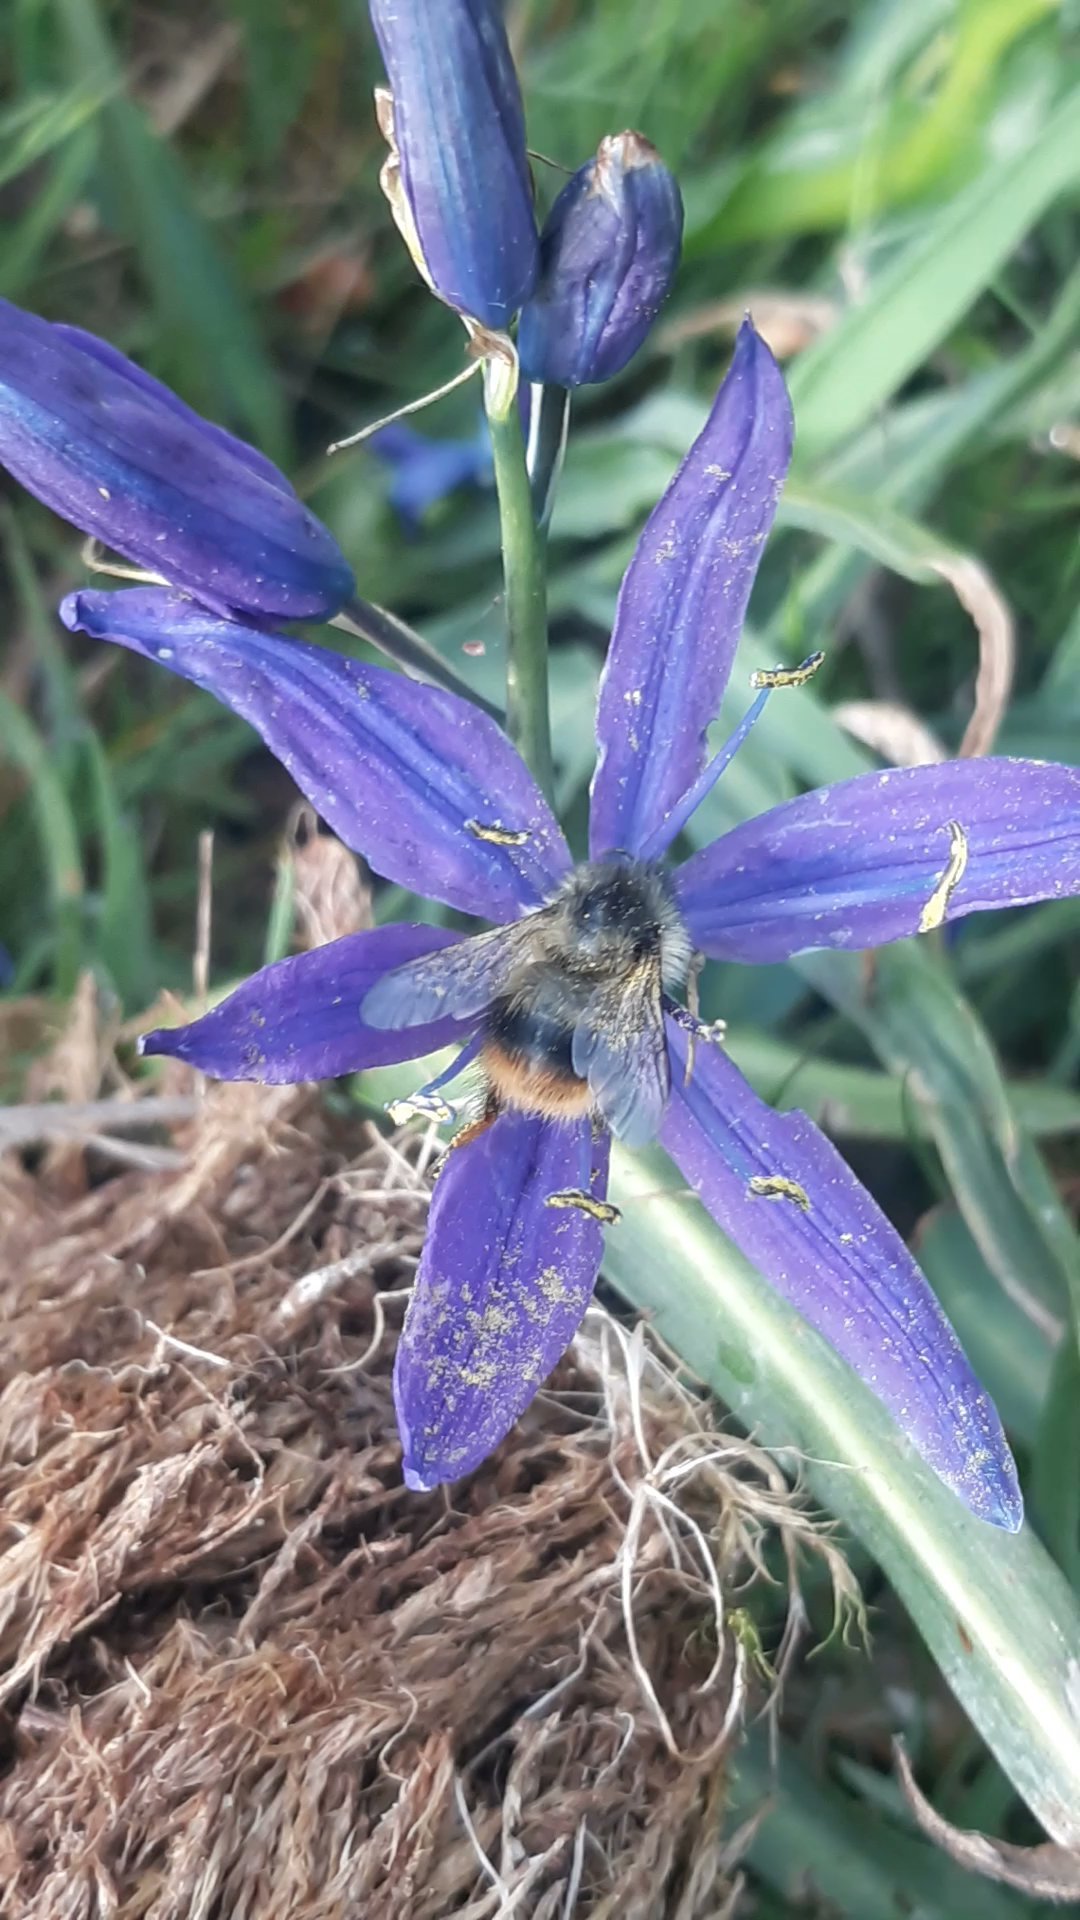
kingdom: Animalia
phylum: Arthropoda
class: Insecta
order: Hymenoptera
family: Apidae
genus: Bombus
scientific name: Bombus mixtus
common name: Fuzzy-horned bumble bee
